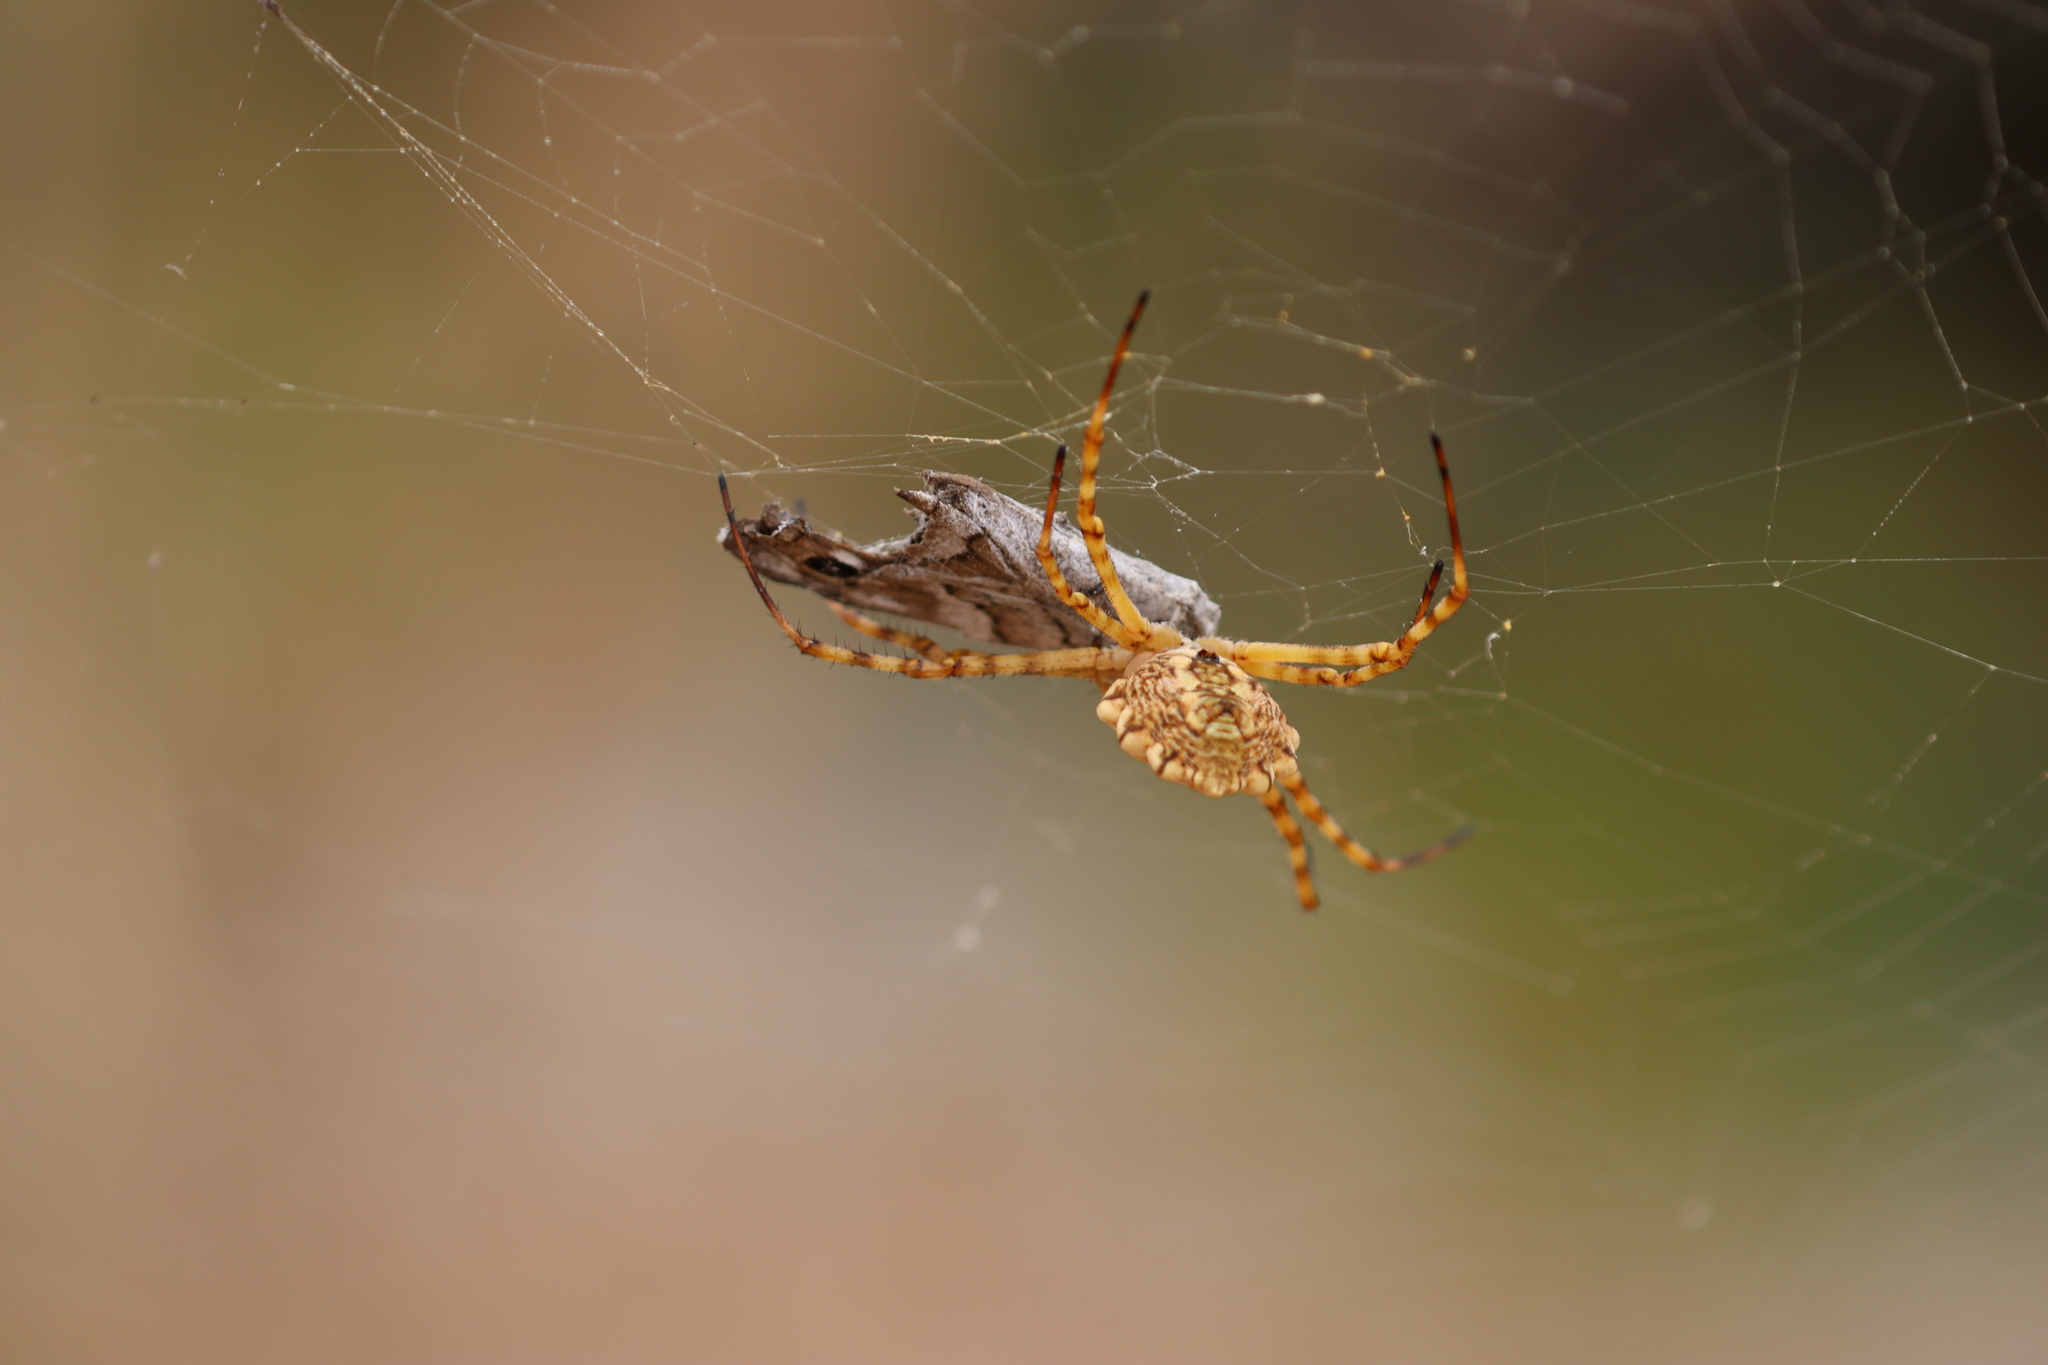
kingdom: Animalia
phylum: Arthropoda
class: Arachnida
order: Araneae
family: Araneidae
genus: Argiope
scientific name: Argiope lobata
